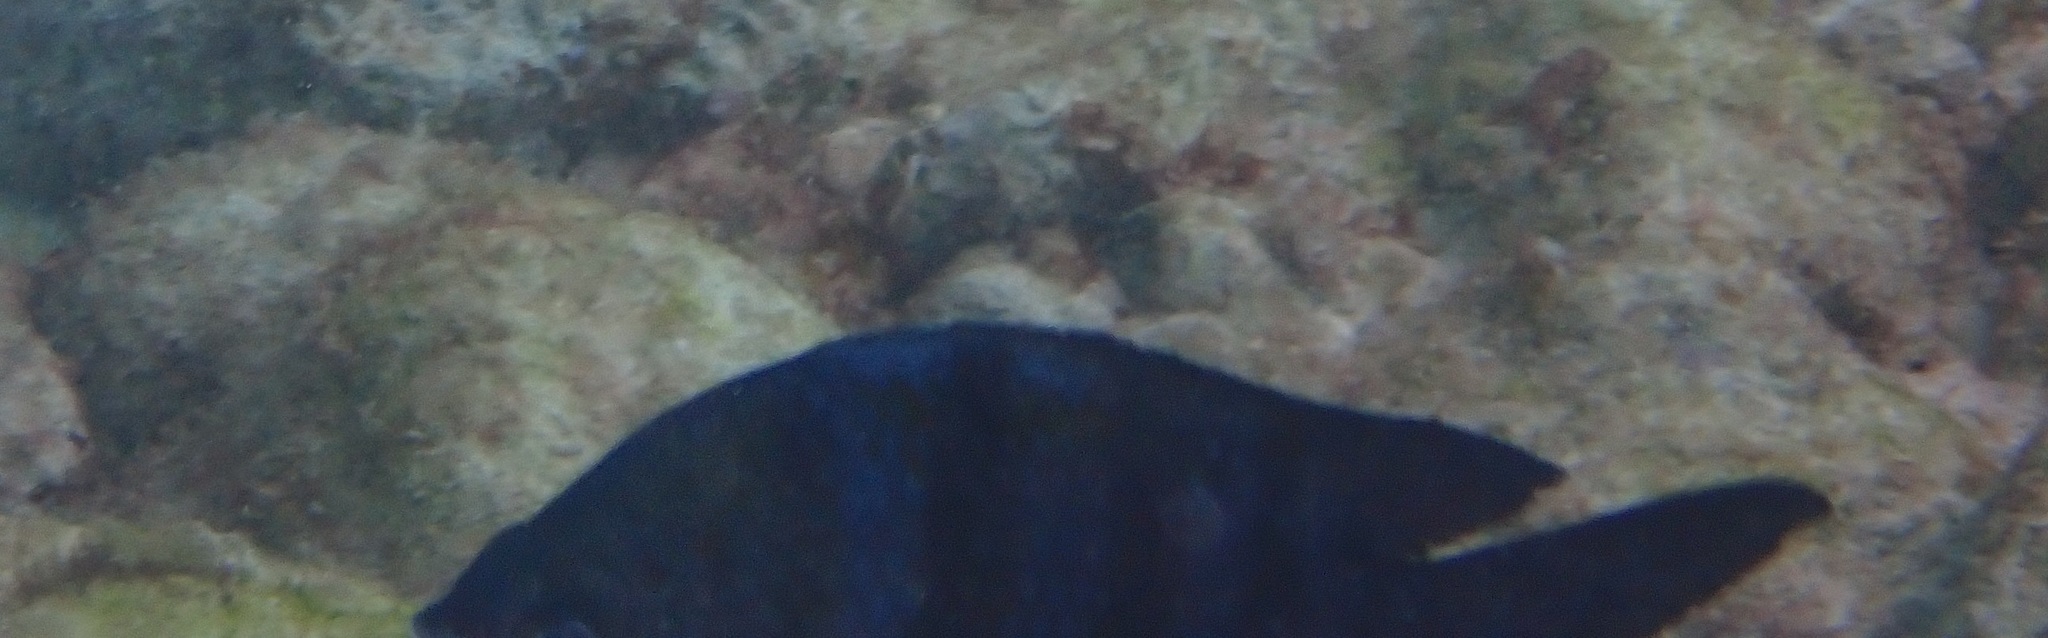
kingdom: Animalia
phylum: Chordata
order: Perciformes
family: Pomacentridae
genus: Abudefduf
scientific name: Abudefduf saxatilis
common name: Sergeant major
